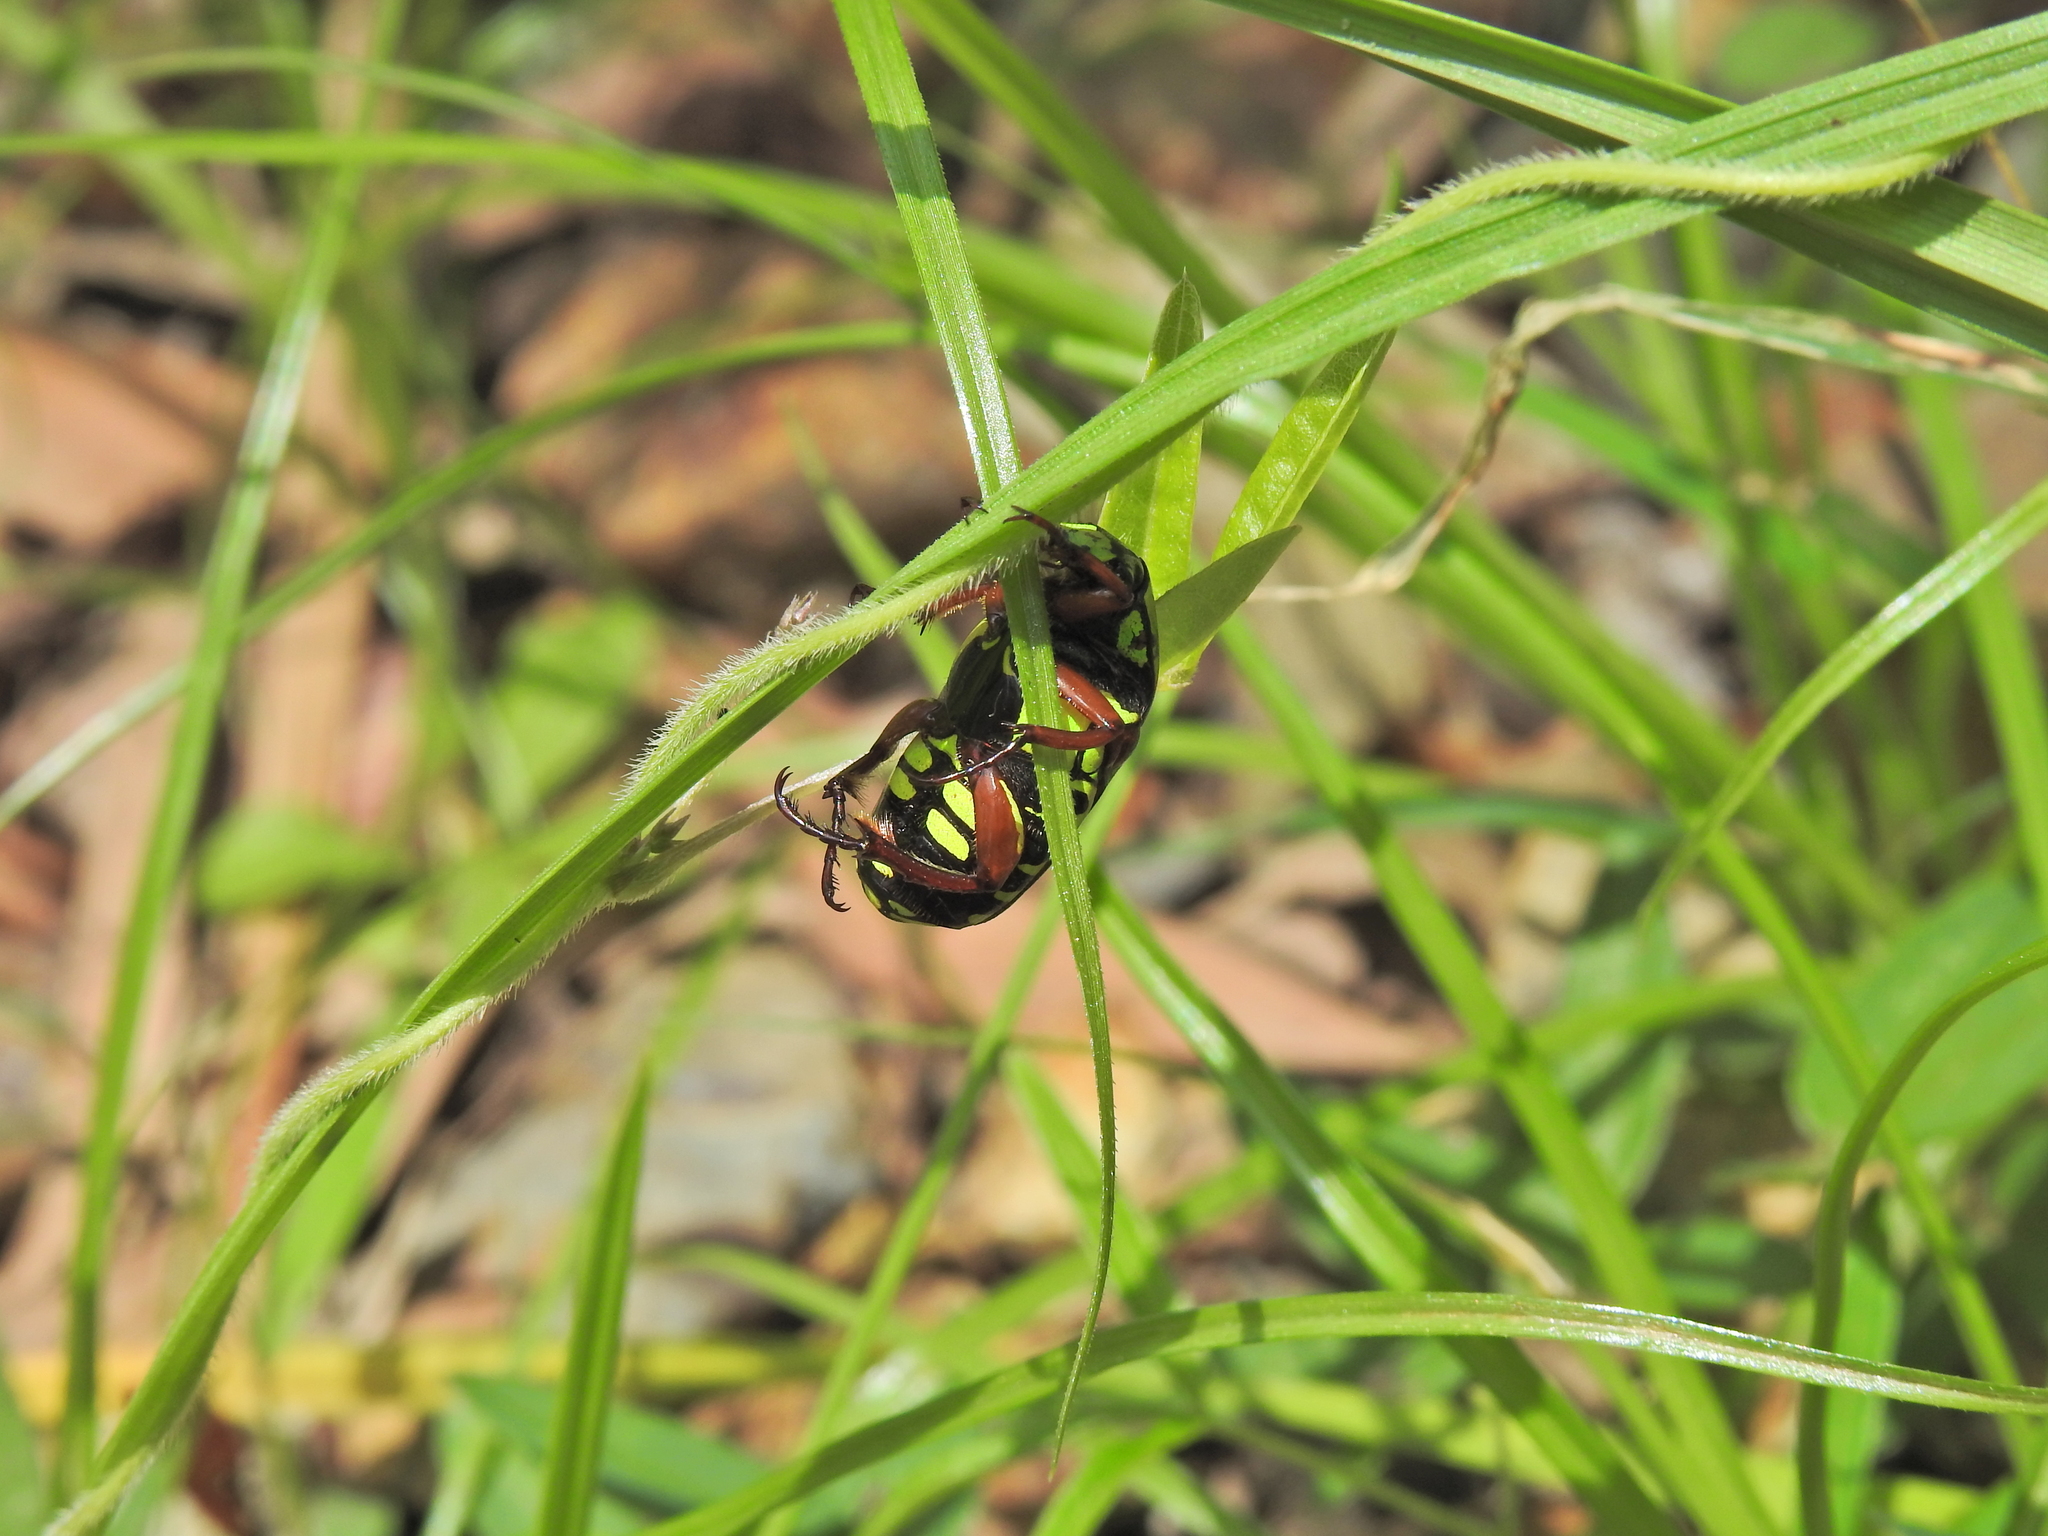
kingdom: Animalia
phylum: Arthropoda
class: Insecta
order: Coleoptera
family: Scarabaeidae
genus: Eupoecila
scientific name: Eupoecila australasiae
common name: Fiddler beetle
